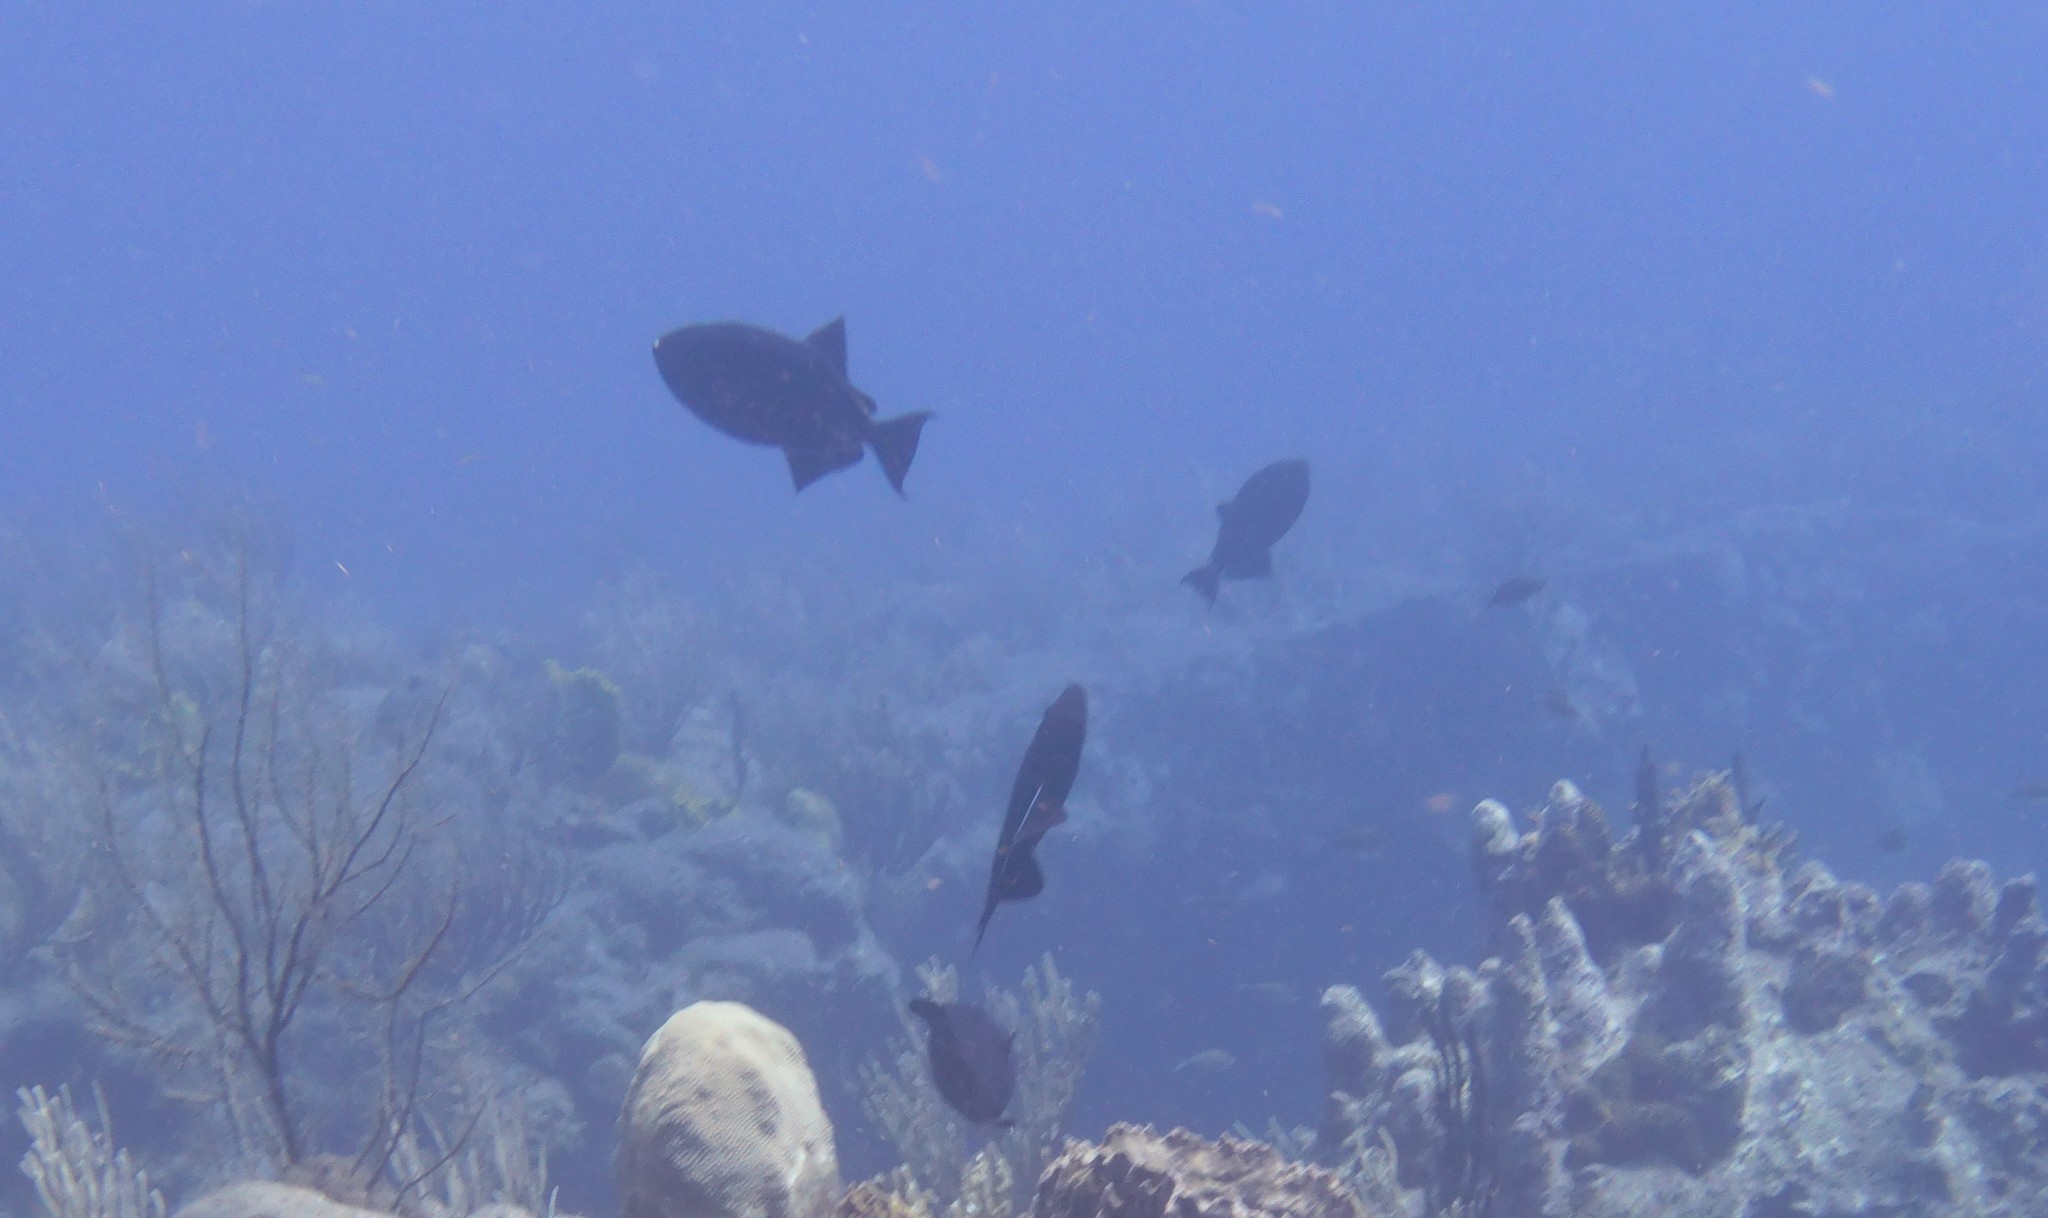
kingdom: Animalia
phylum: Chordata
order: Tetraodontiformes
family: Balistidae
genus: Melichthys
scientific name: Melichthys niger
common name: Black durgon
